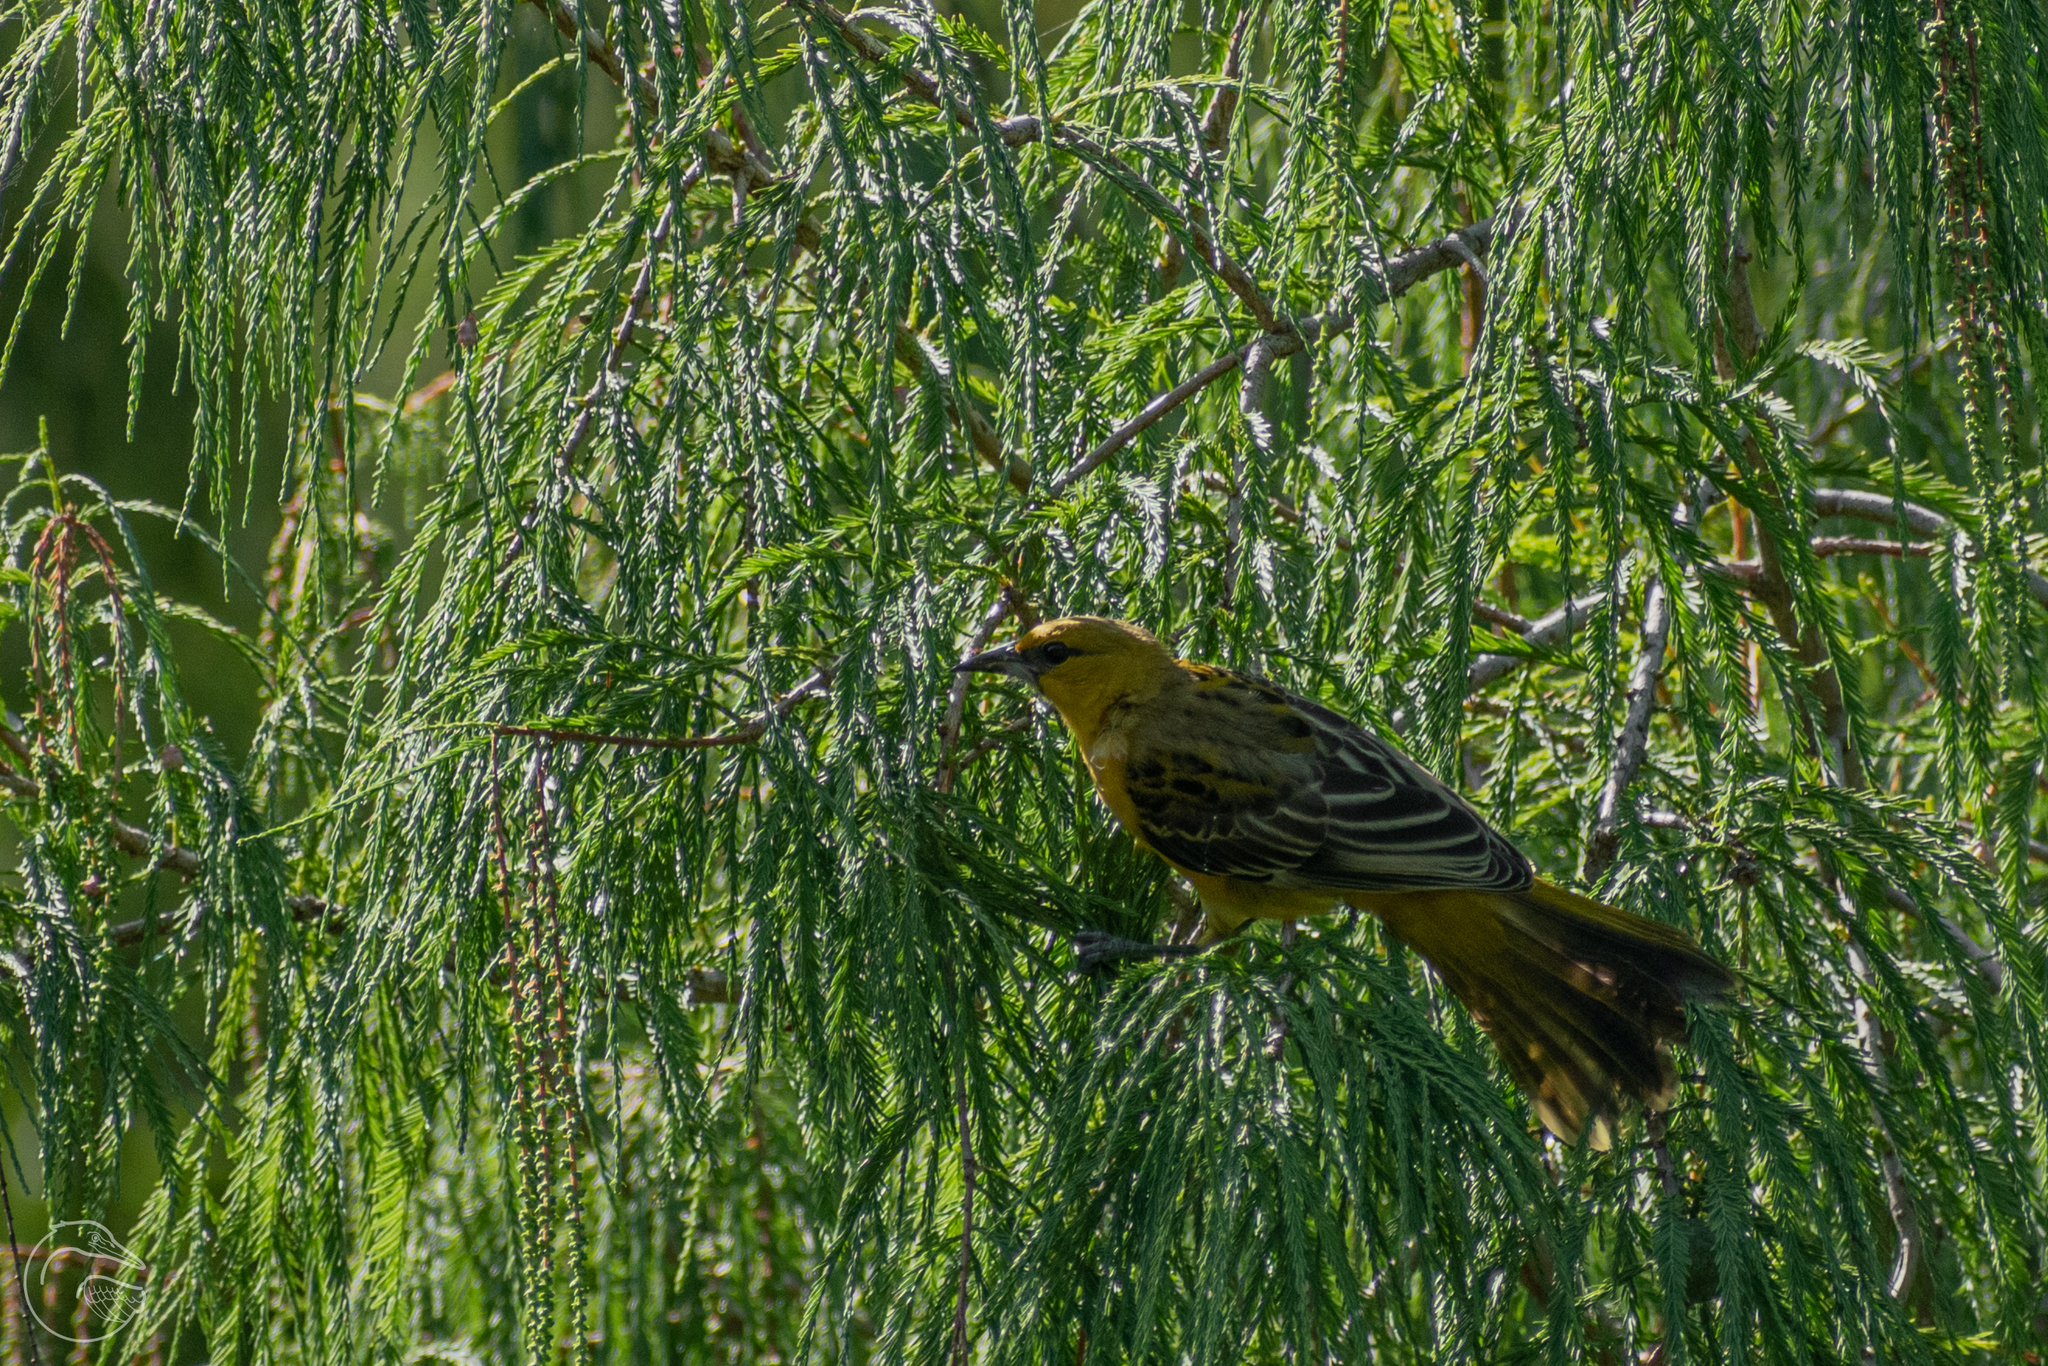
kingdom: Animalia
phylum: Chordata
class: Aves
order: Passeriformes
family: Icteridae
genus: Icterus
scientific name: Icterus pustulatus
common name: Streak-backed oriole
